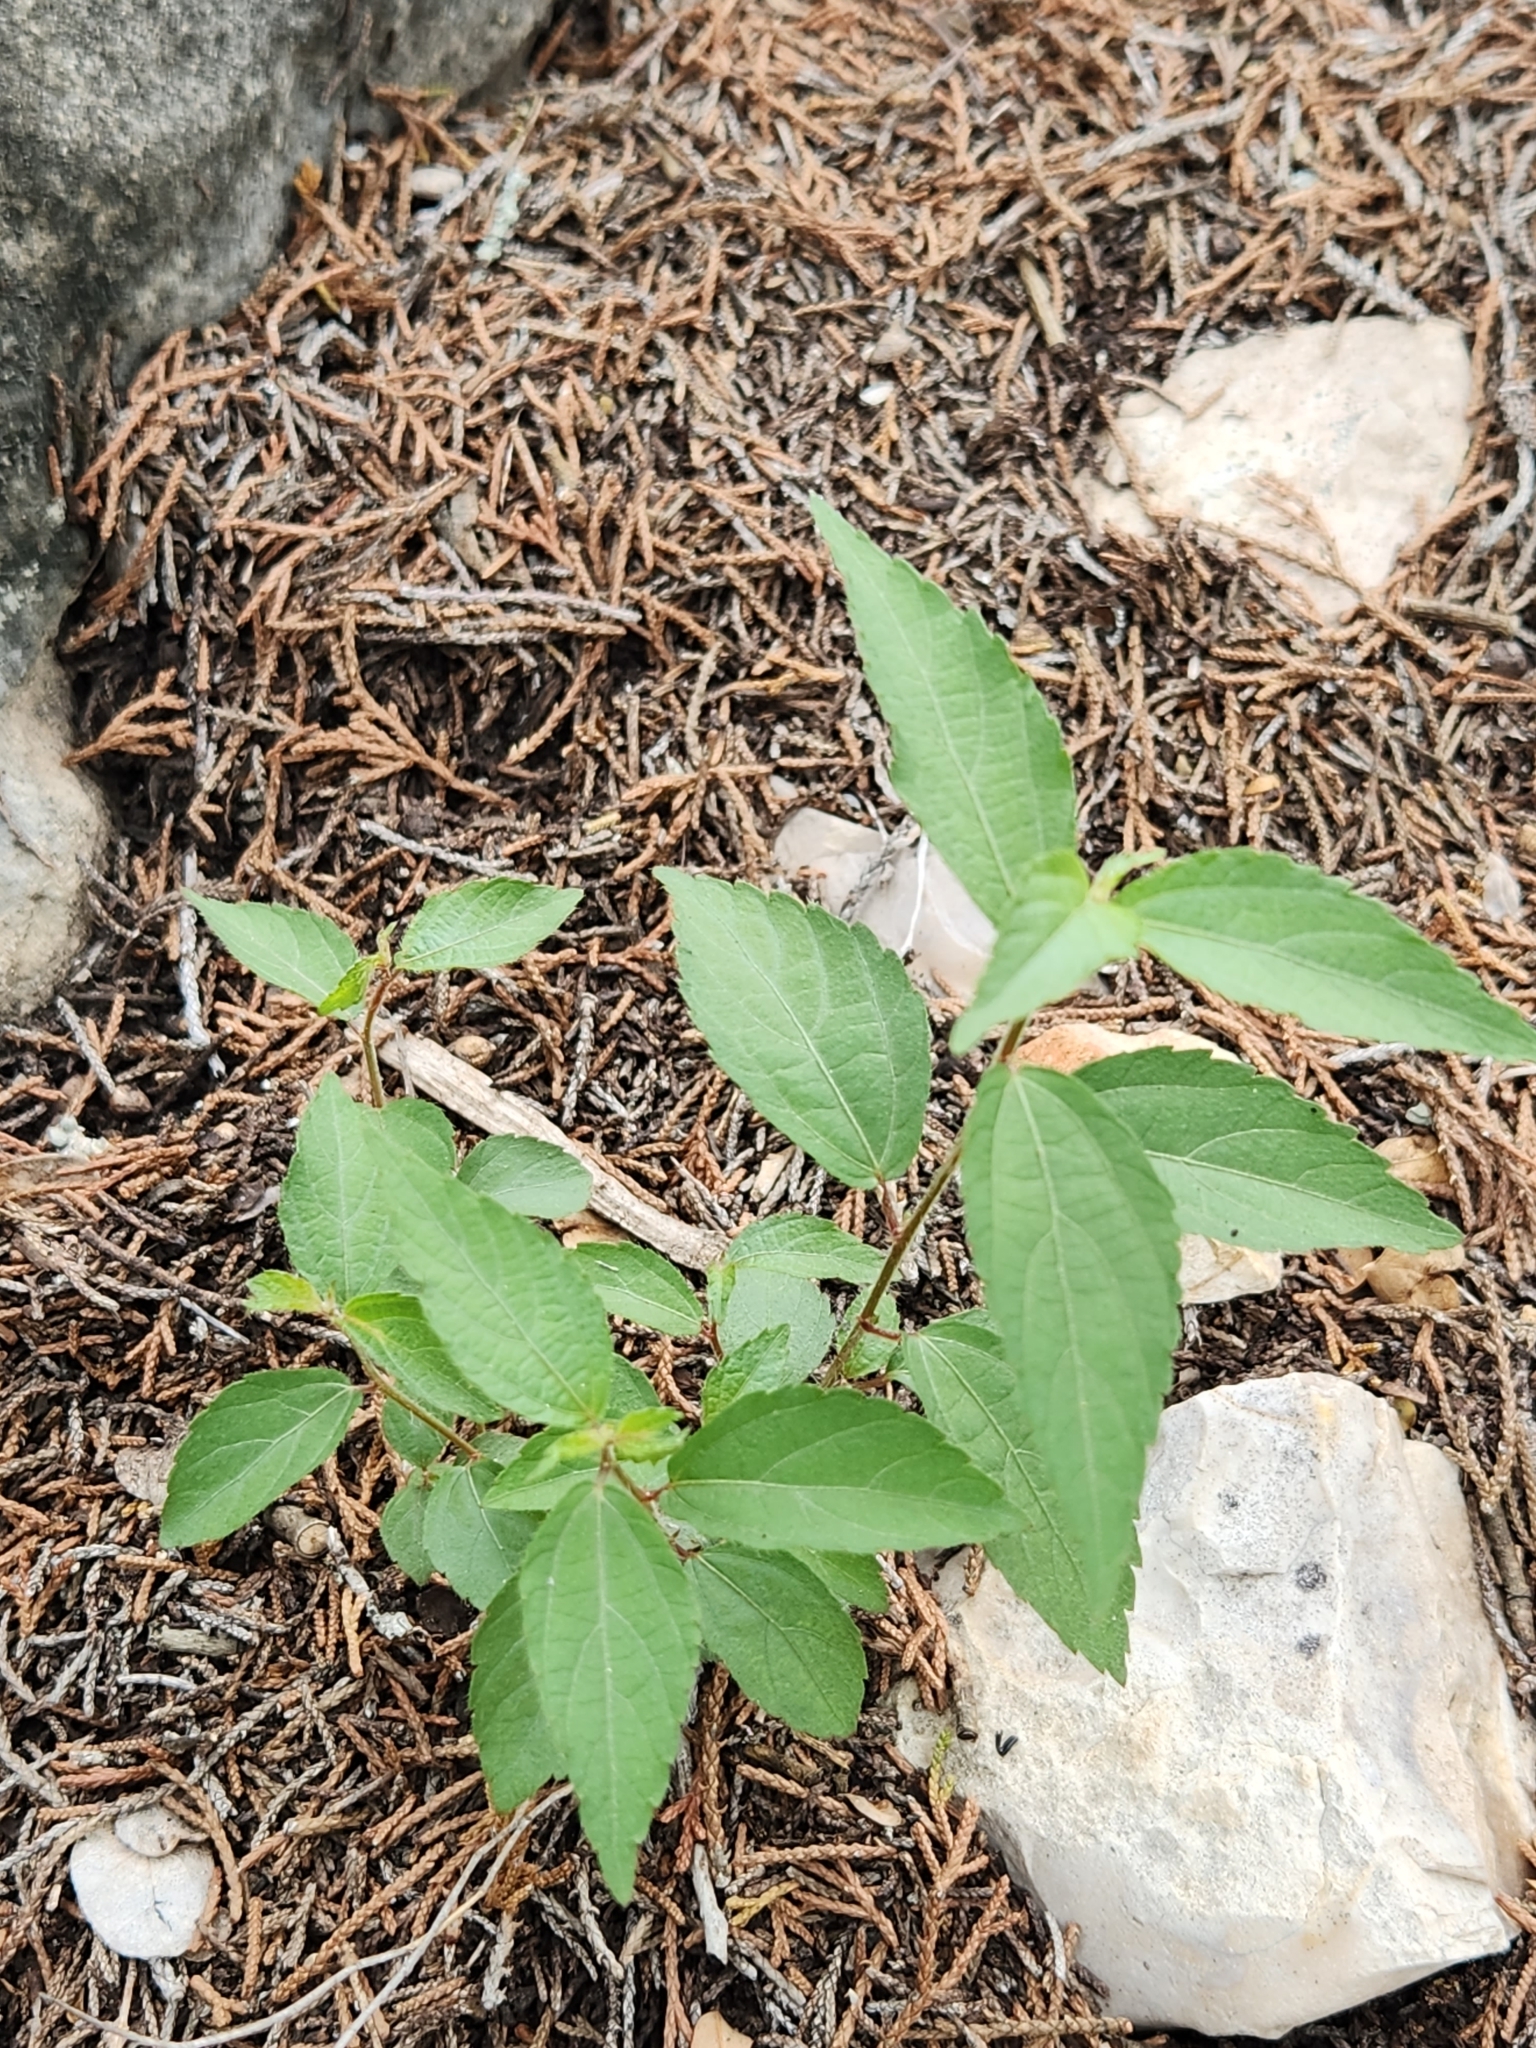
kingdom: Plantae
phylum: Tracheophyta
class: Magnoliopsida
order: Malpighiales
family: Euphorbiaceae
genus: Acalypha
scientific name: Acalypha phleoides
